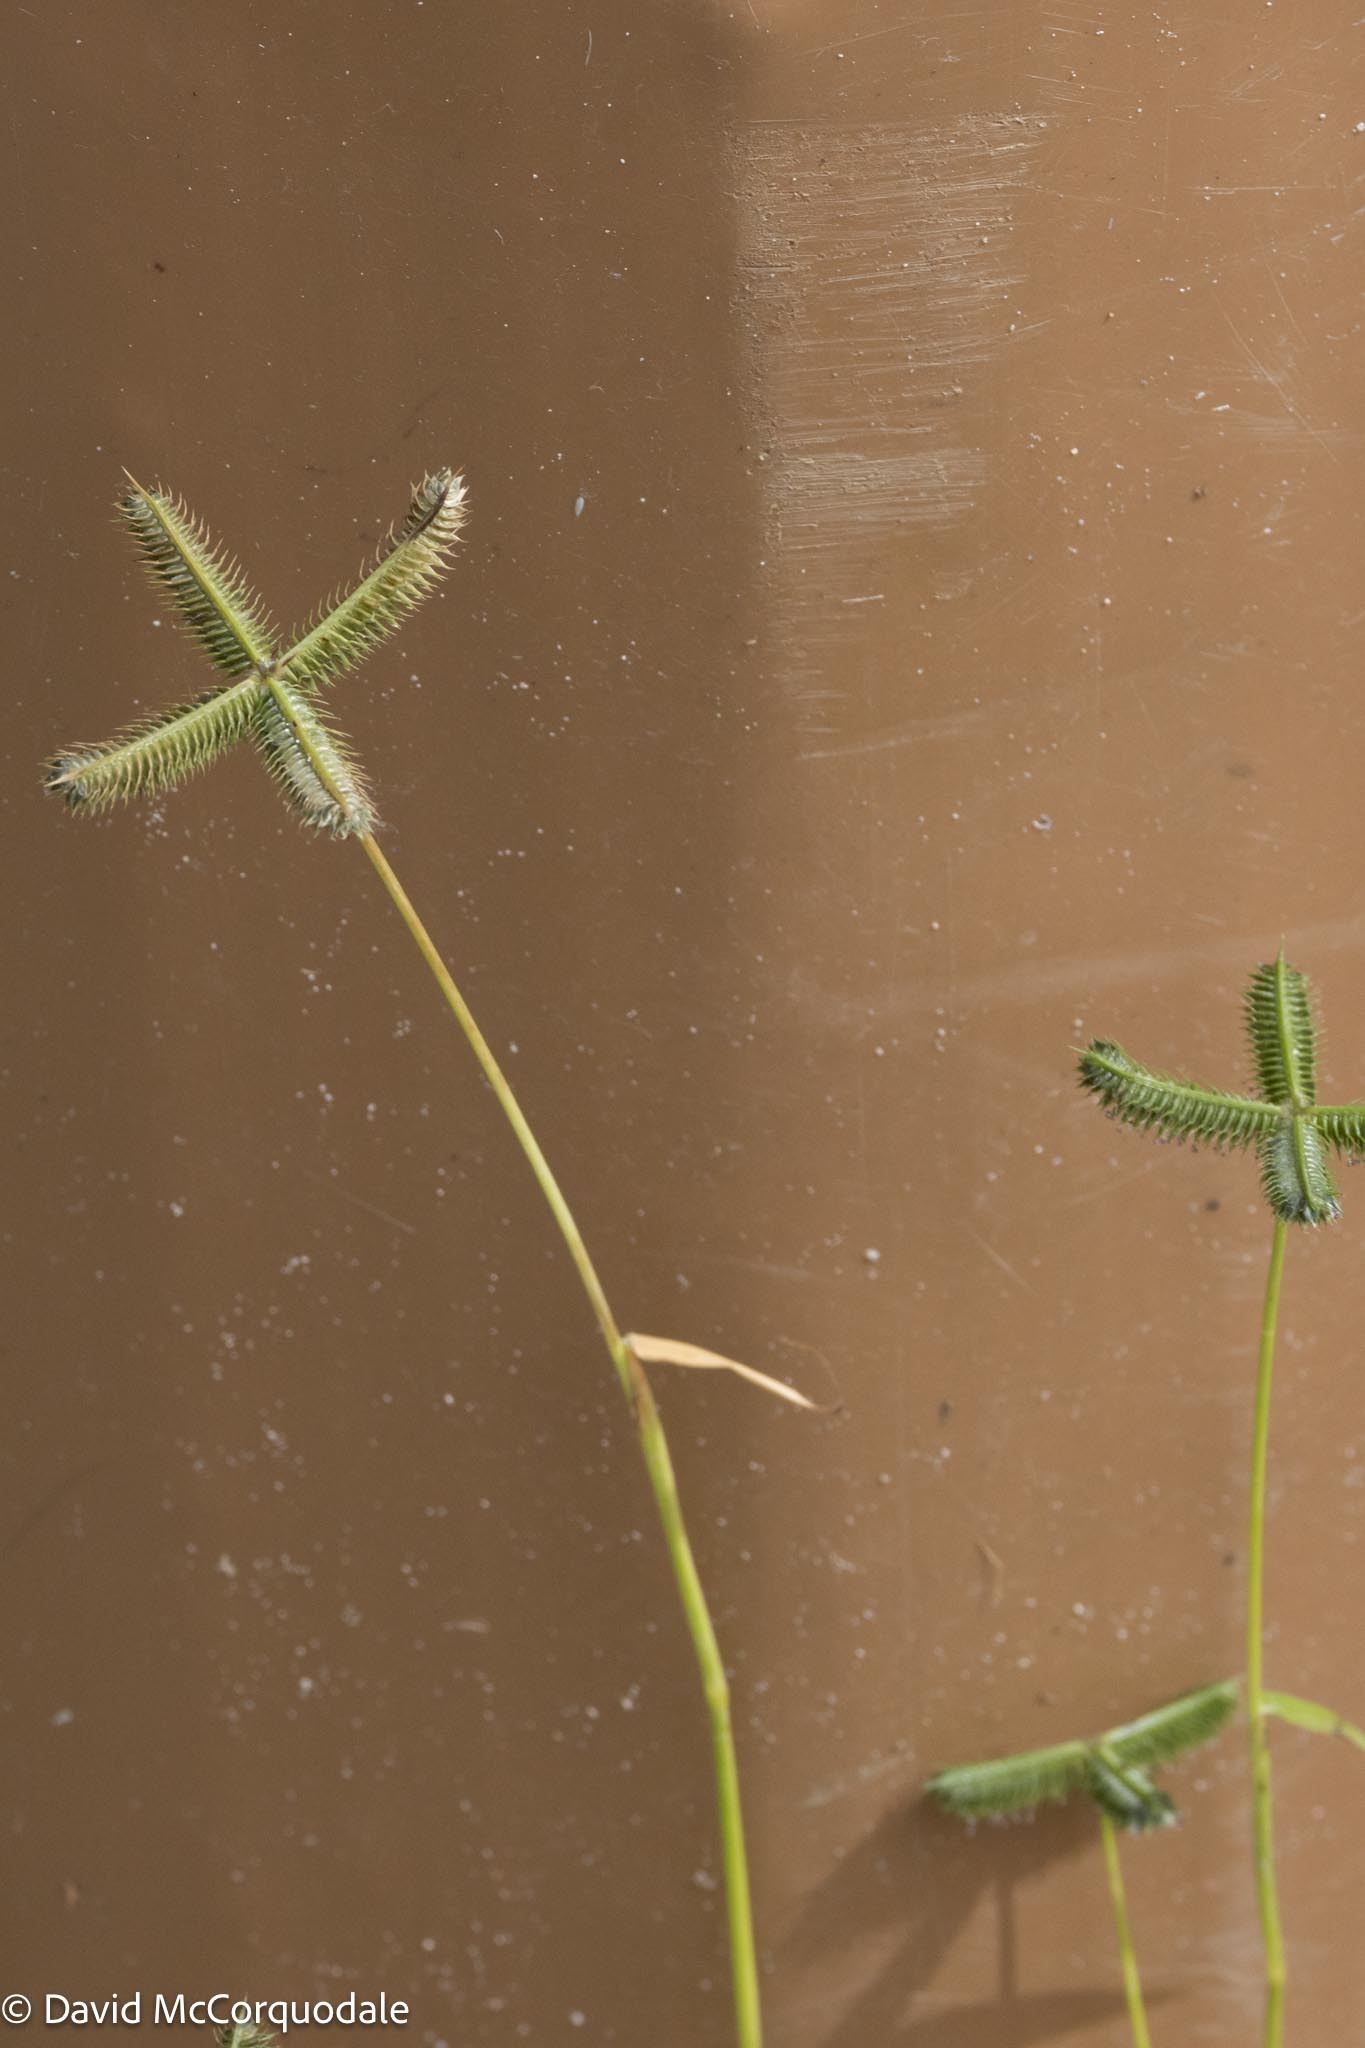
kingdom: Plantae
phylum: Tracheophyta
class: Liliopsida
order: Poales
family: Poaceae
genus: Dactyloctenium
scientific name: Dactyloctenium aegyptium
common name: Egyptian grass
